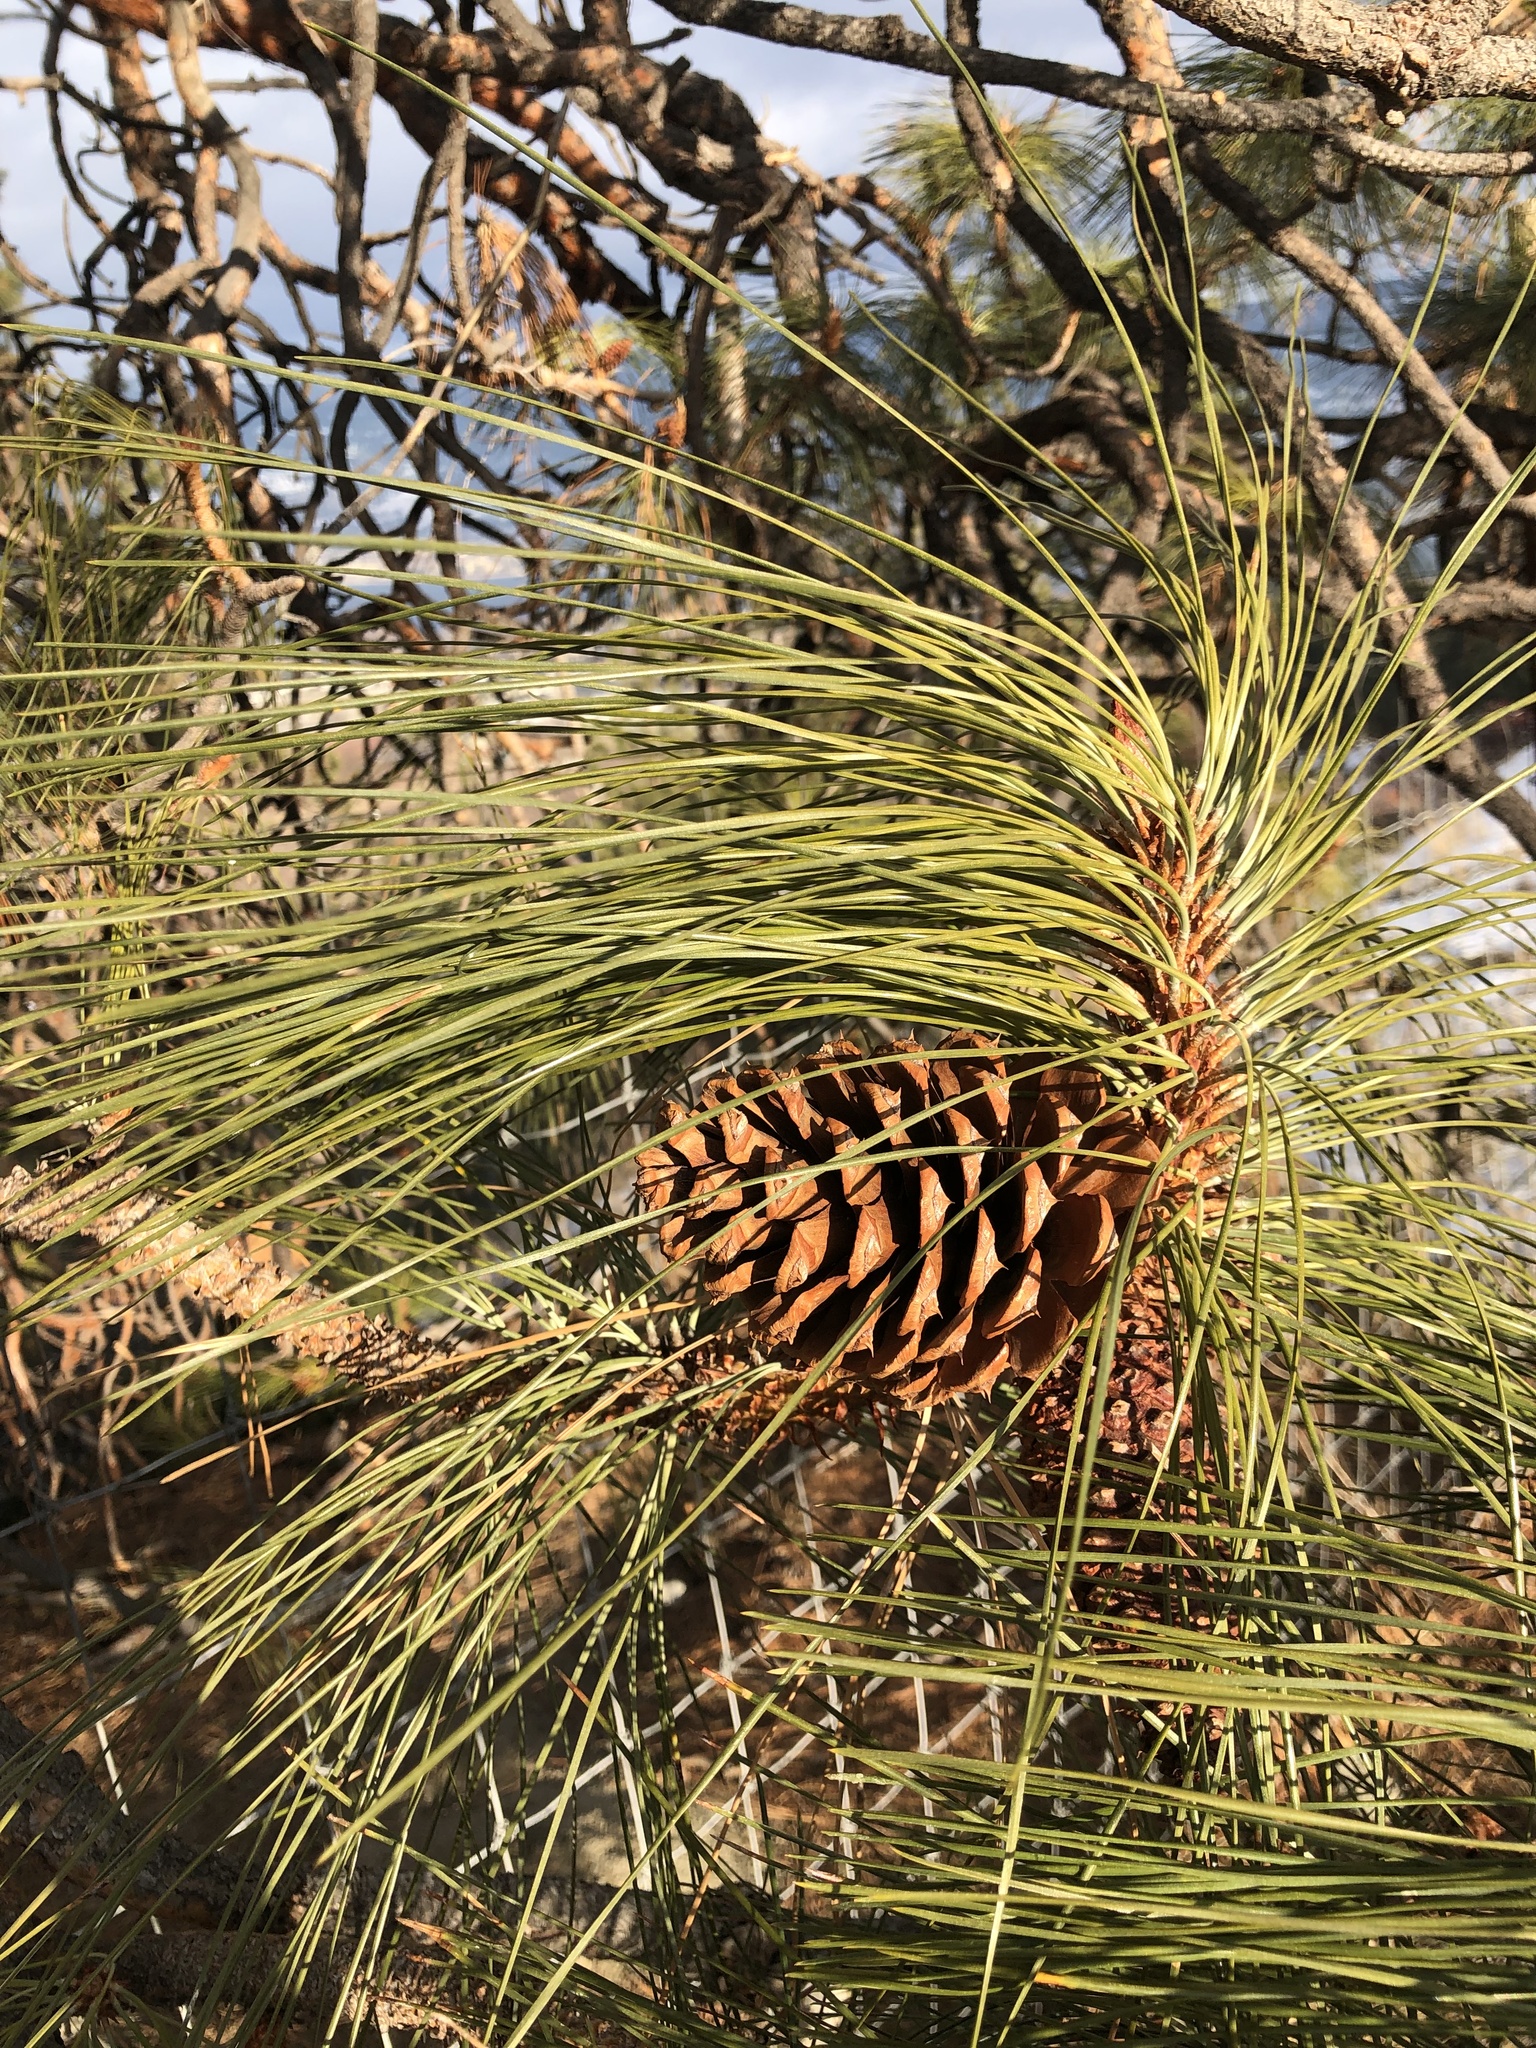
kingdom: Plantae
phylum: Tracheophyta
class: Pinopsida
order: Pinales
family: Pinaceae
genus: Pinus
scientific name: Pinus ponderosa
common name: Western yellow-pine
